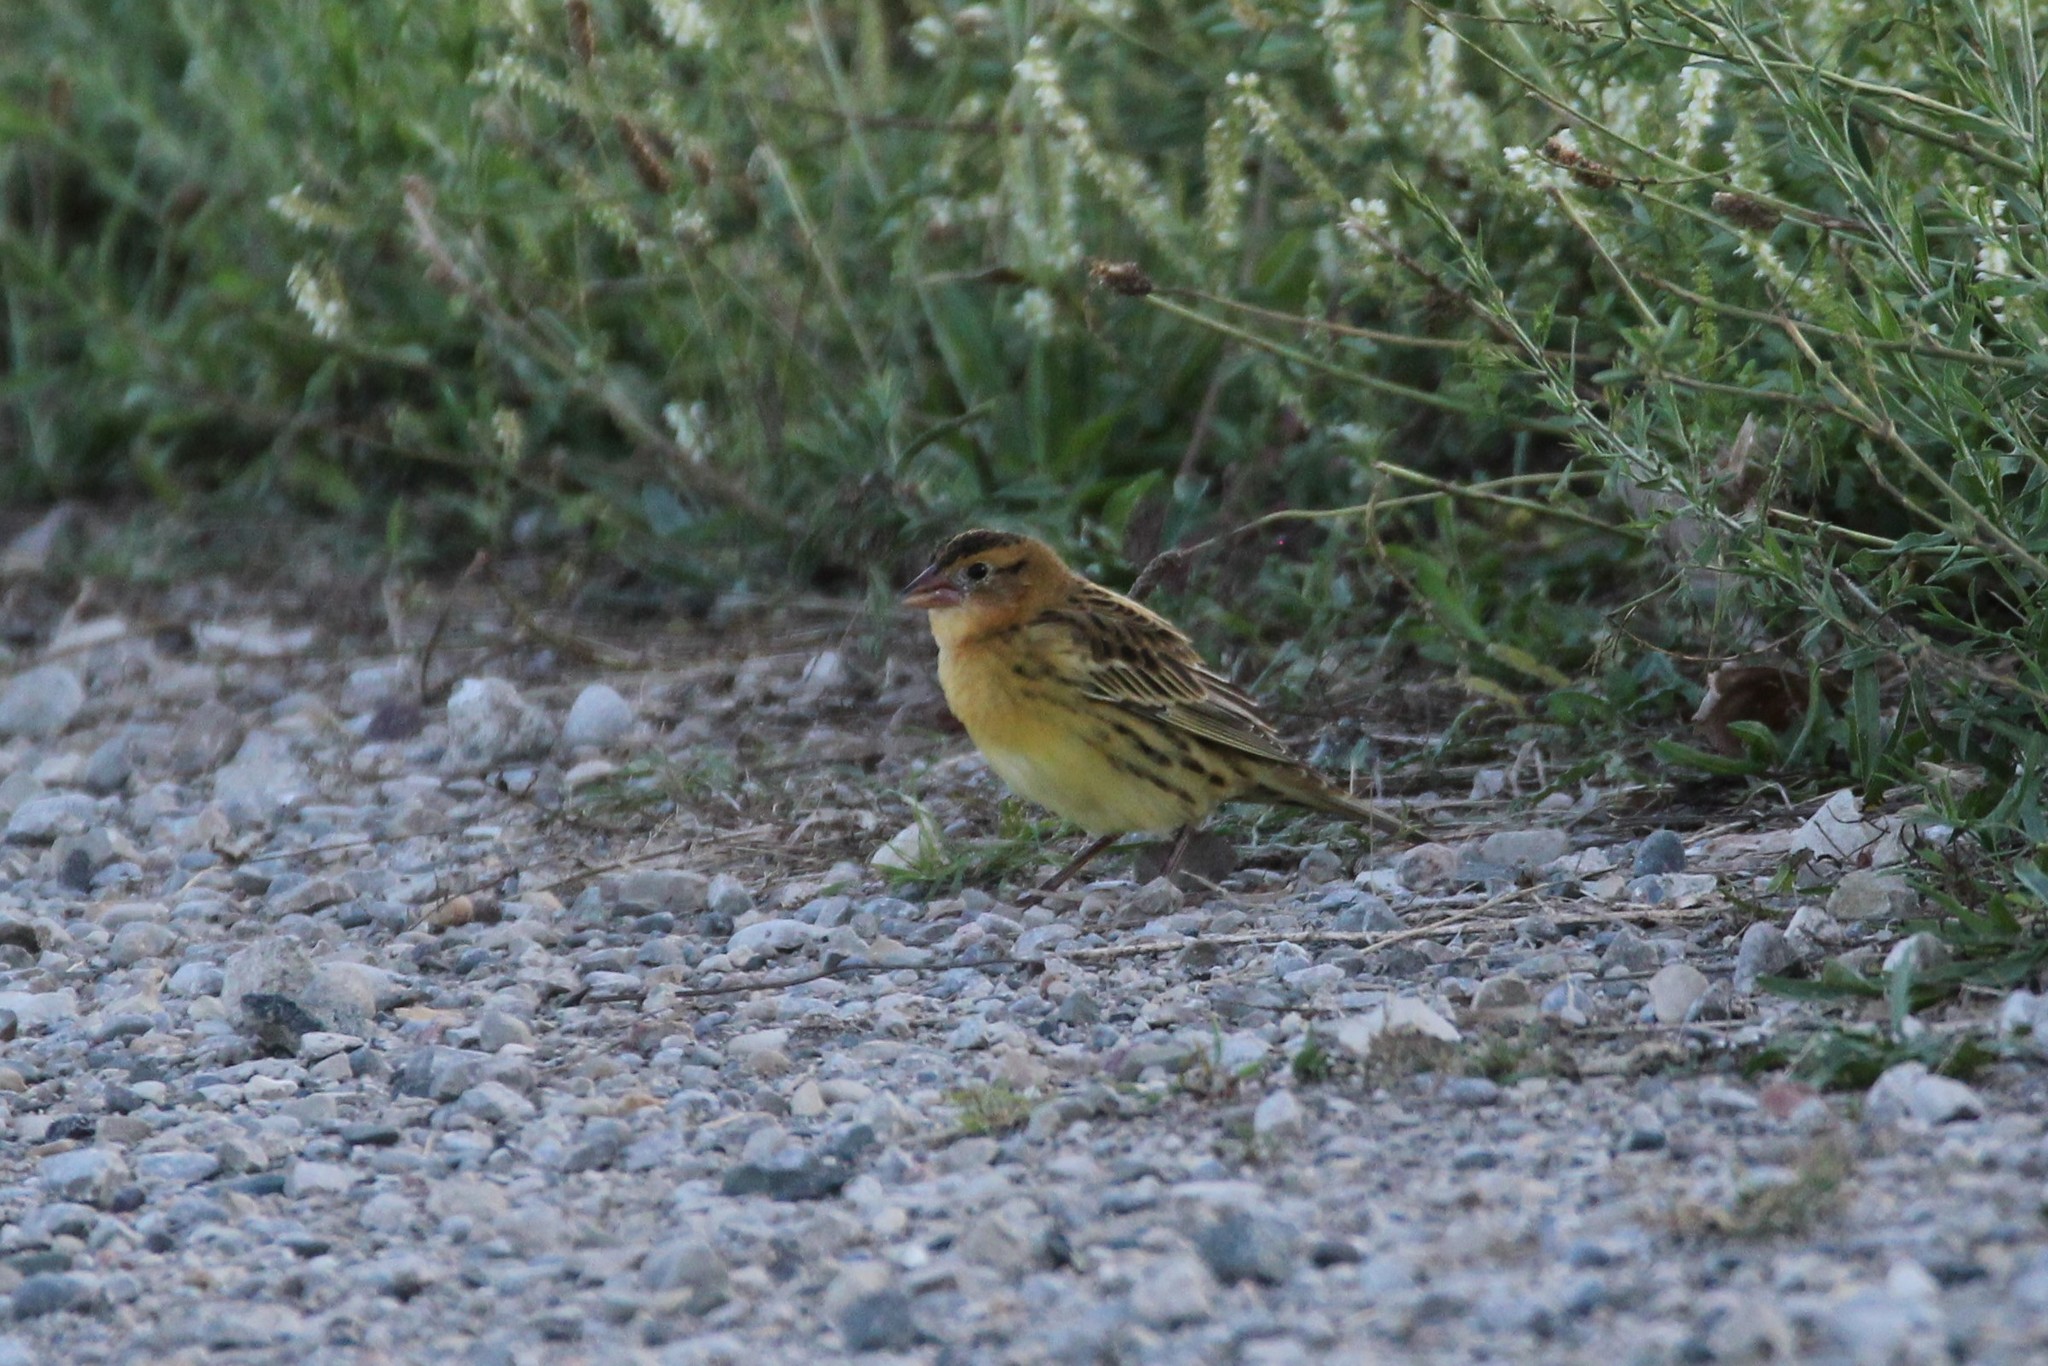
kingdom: Animalia
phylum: Chordata
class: Aves
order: Passeriformes
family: Icteridae
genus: Dolichonyx
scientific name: Dolichonyx oryzivorus
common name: Bobolink
